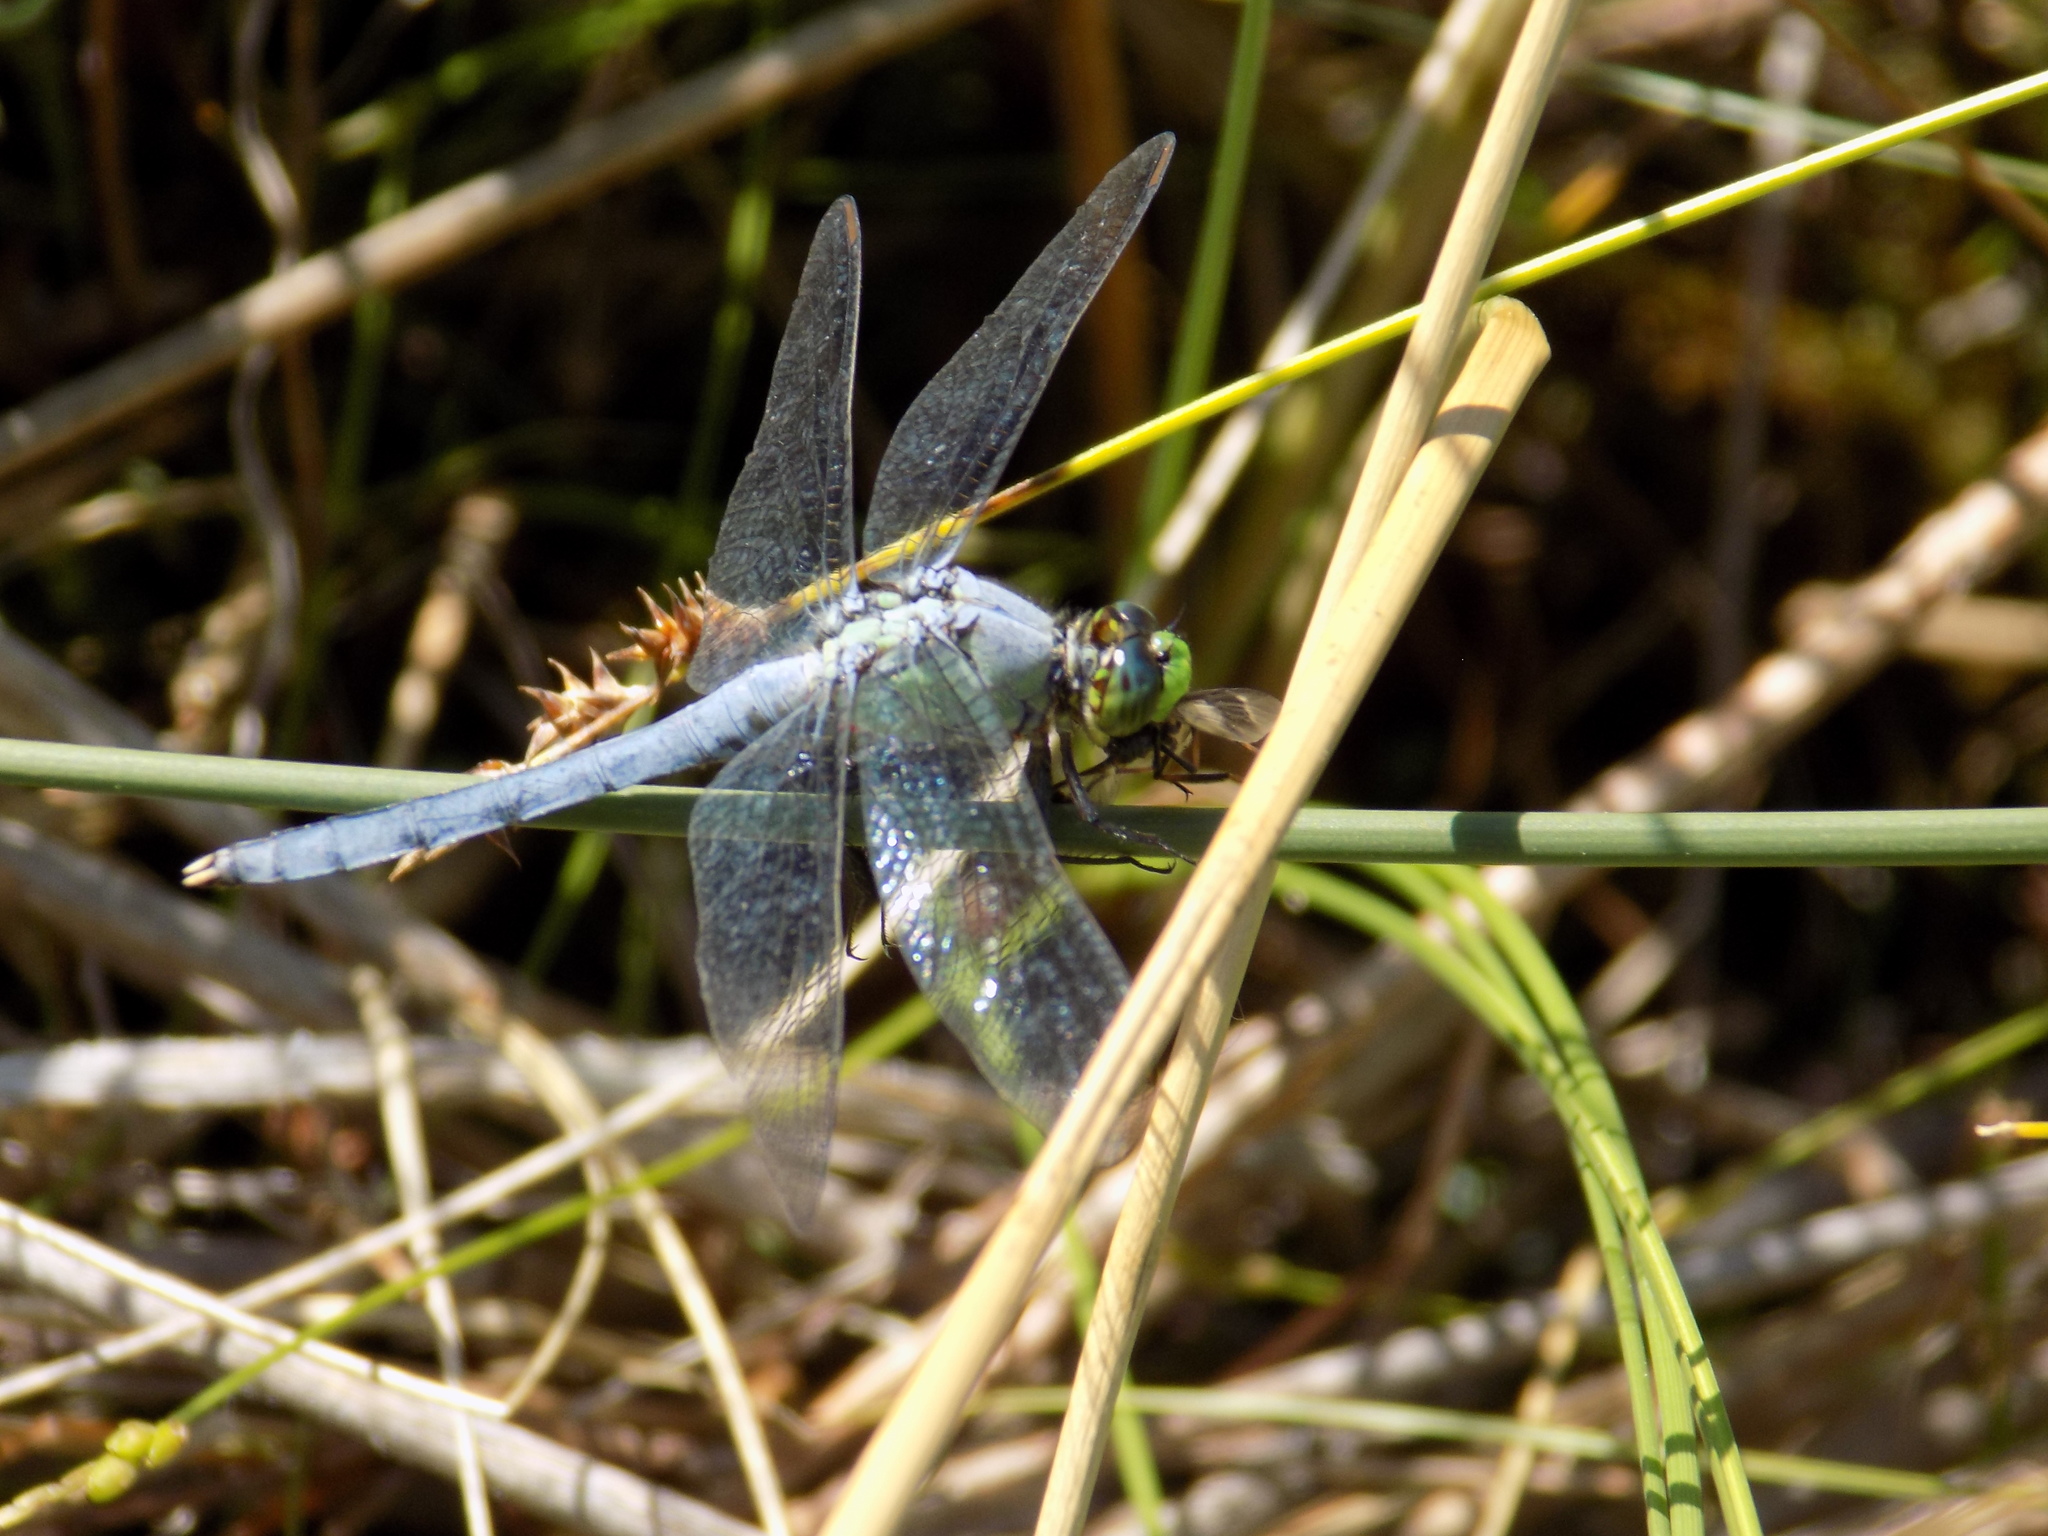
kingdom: Animalia
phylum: Arthropoda
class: Insecta
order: Odonata
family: Libellulidae
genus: Erythemis
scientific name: Erythemis simplicicollis
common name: Eastern pondhawk
